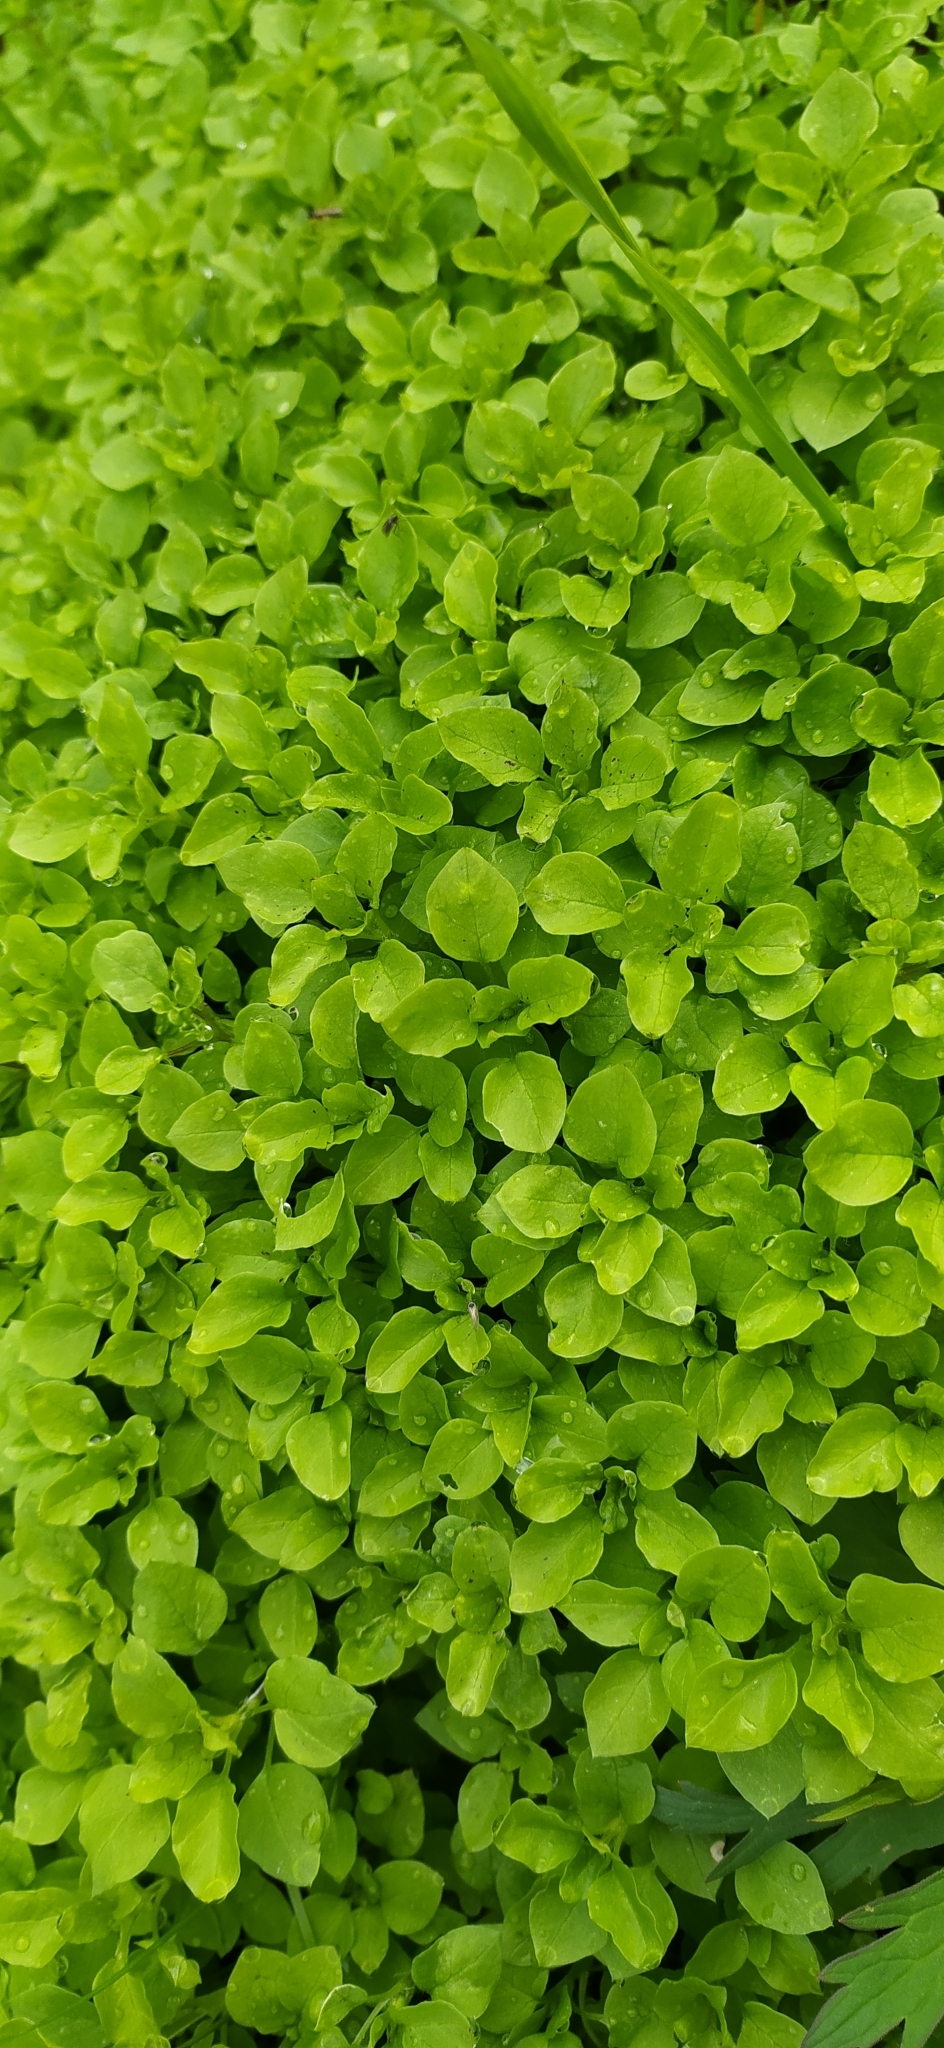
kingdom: Plantae
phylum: Tracheophyta
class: Magnoliopsida
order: Caryophyllales
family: Caryophyllaceae
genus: Stellaria
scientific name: Stellaria media
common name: Common chickweed
